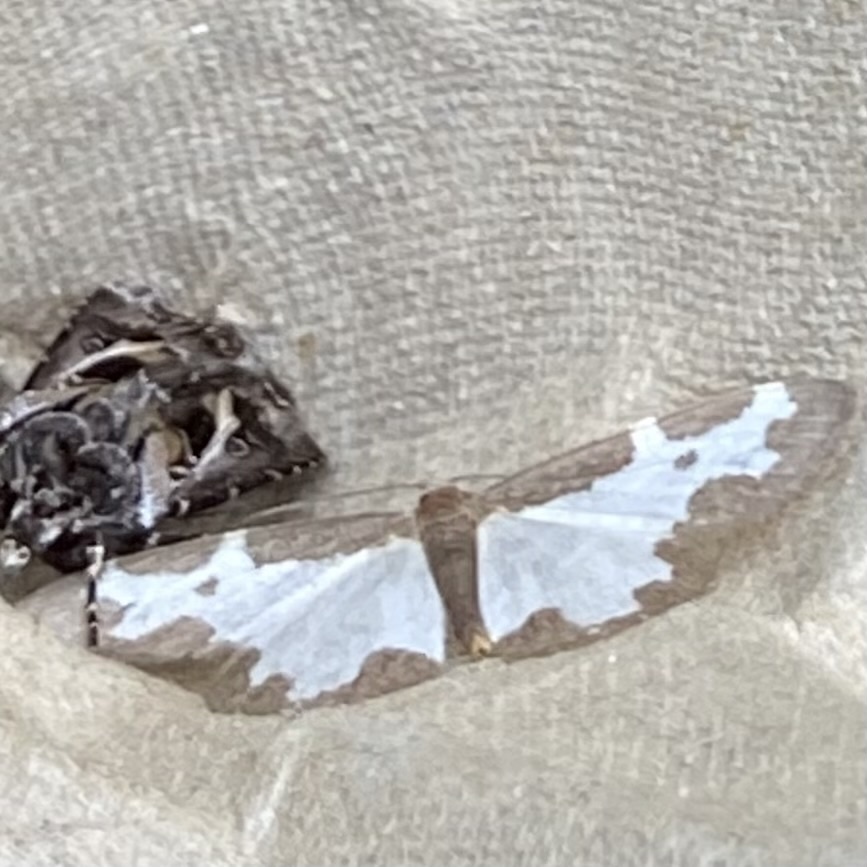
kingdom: Animalia
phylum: Arthropoda
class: Insecta
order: Lepidoptera
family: Geometridae
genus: Lomaspilis
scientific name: Lomaspilis marginata
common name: Clouded border
